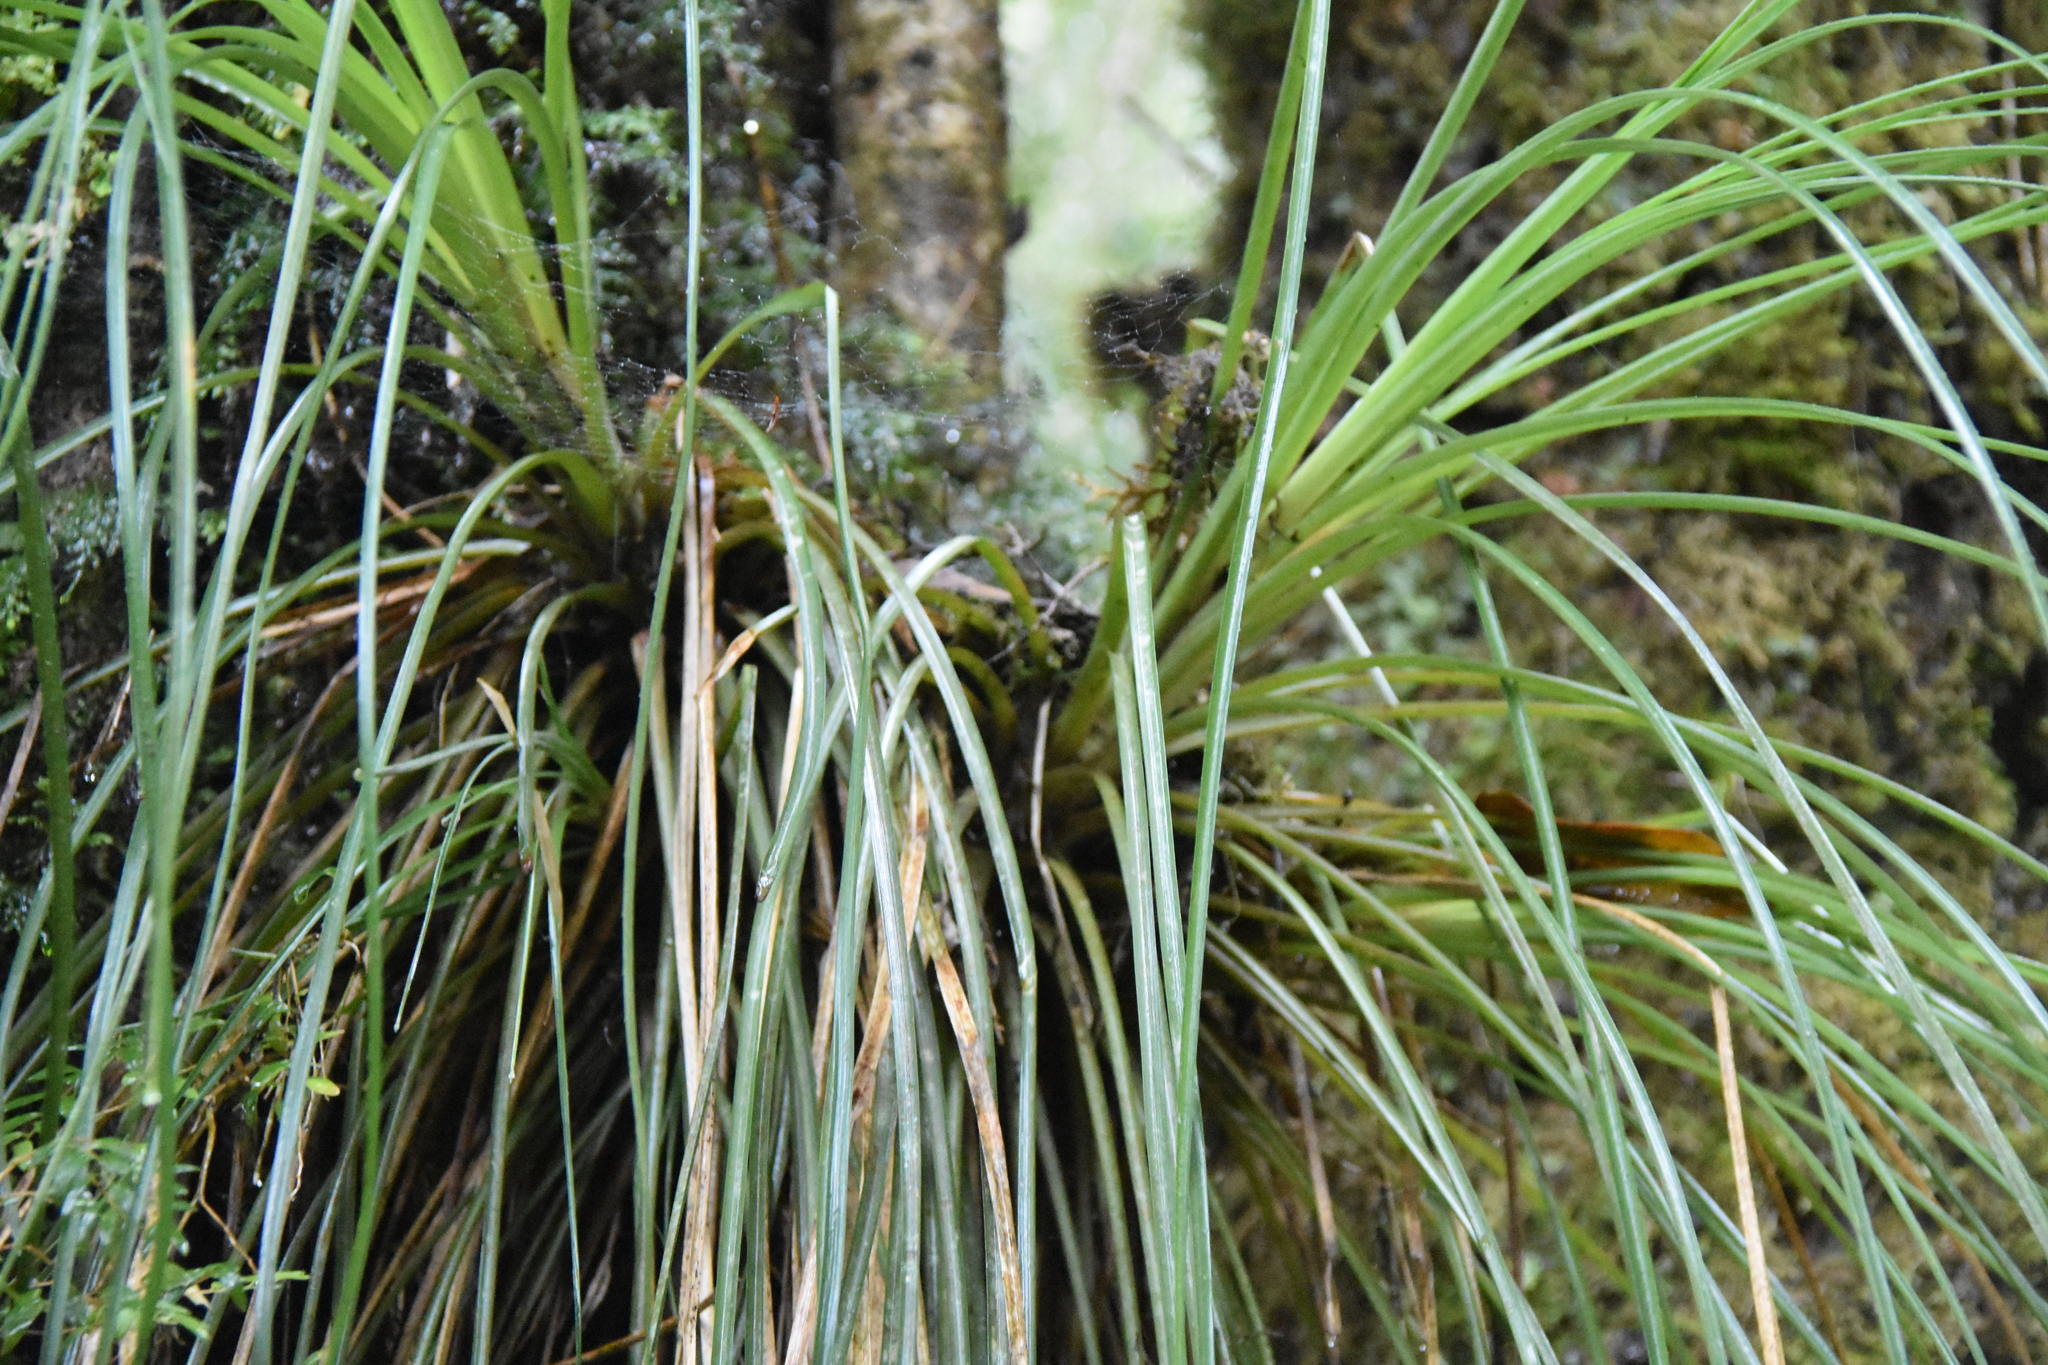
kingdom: Plantae
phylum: Tracheophyta
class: Liliopsida
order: Poales
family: Bromeliaceae
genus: Fascicularia
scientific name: Fascicularia bicolor
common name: Rhodostachys
